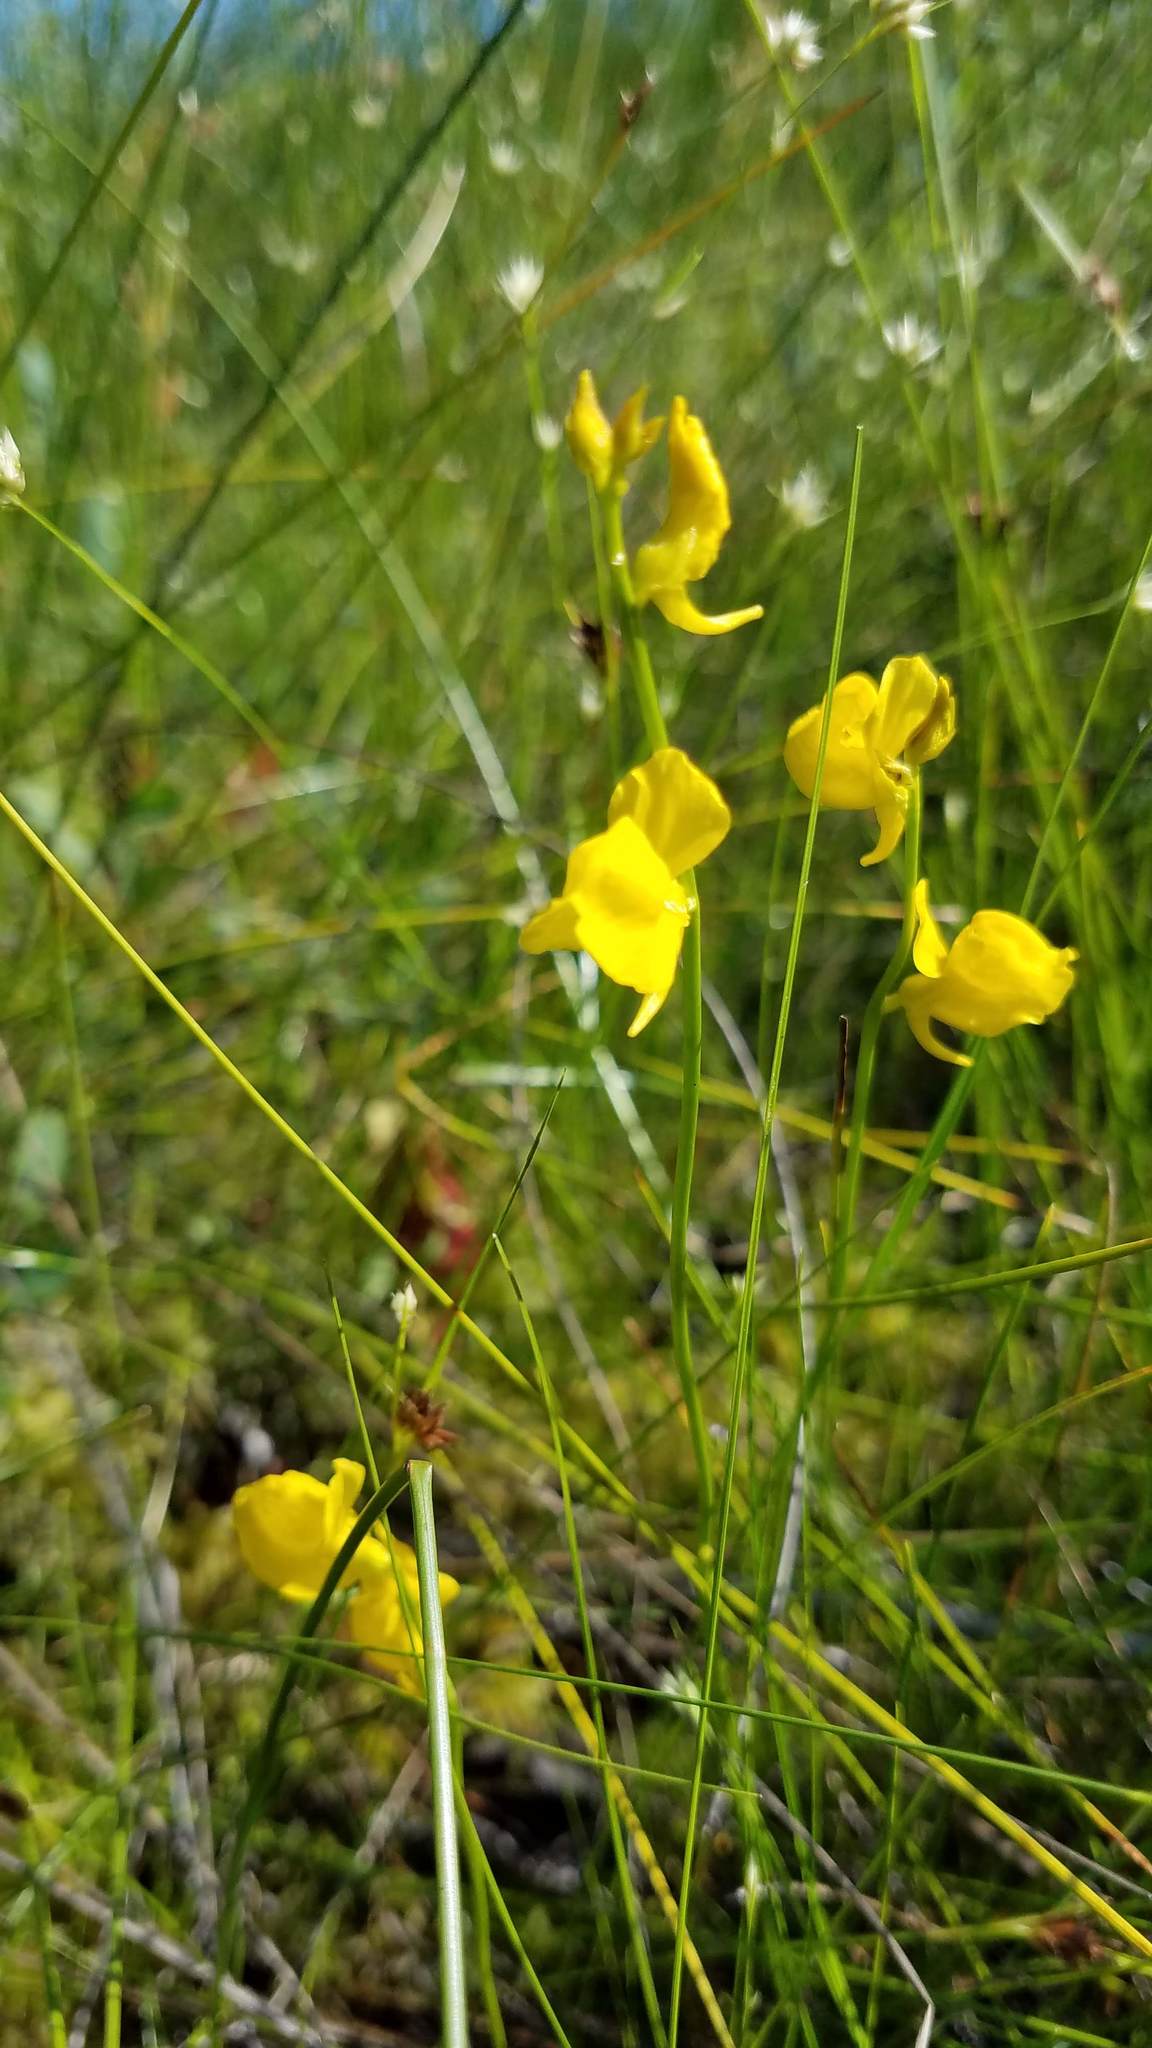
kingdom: Plantae
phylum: Tracheophyta
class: Magnoliopsida
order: Lamiales
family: Lentibulariaceae
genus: Utricularia
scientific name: Utricularia cornuta
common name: Horned bladderwort
